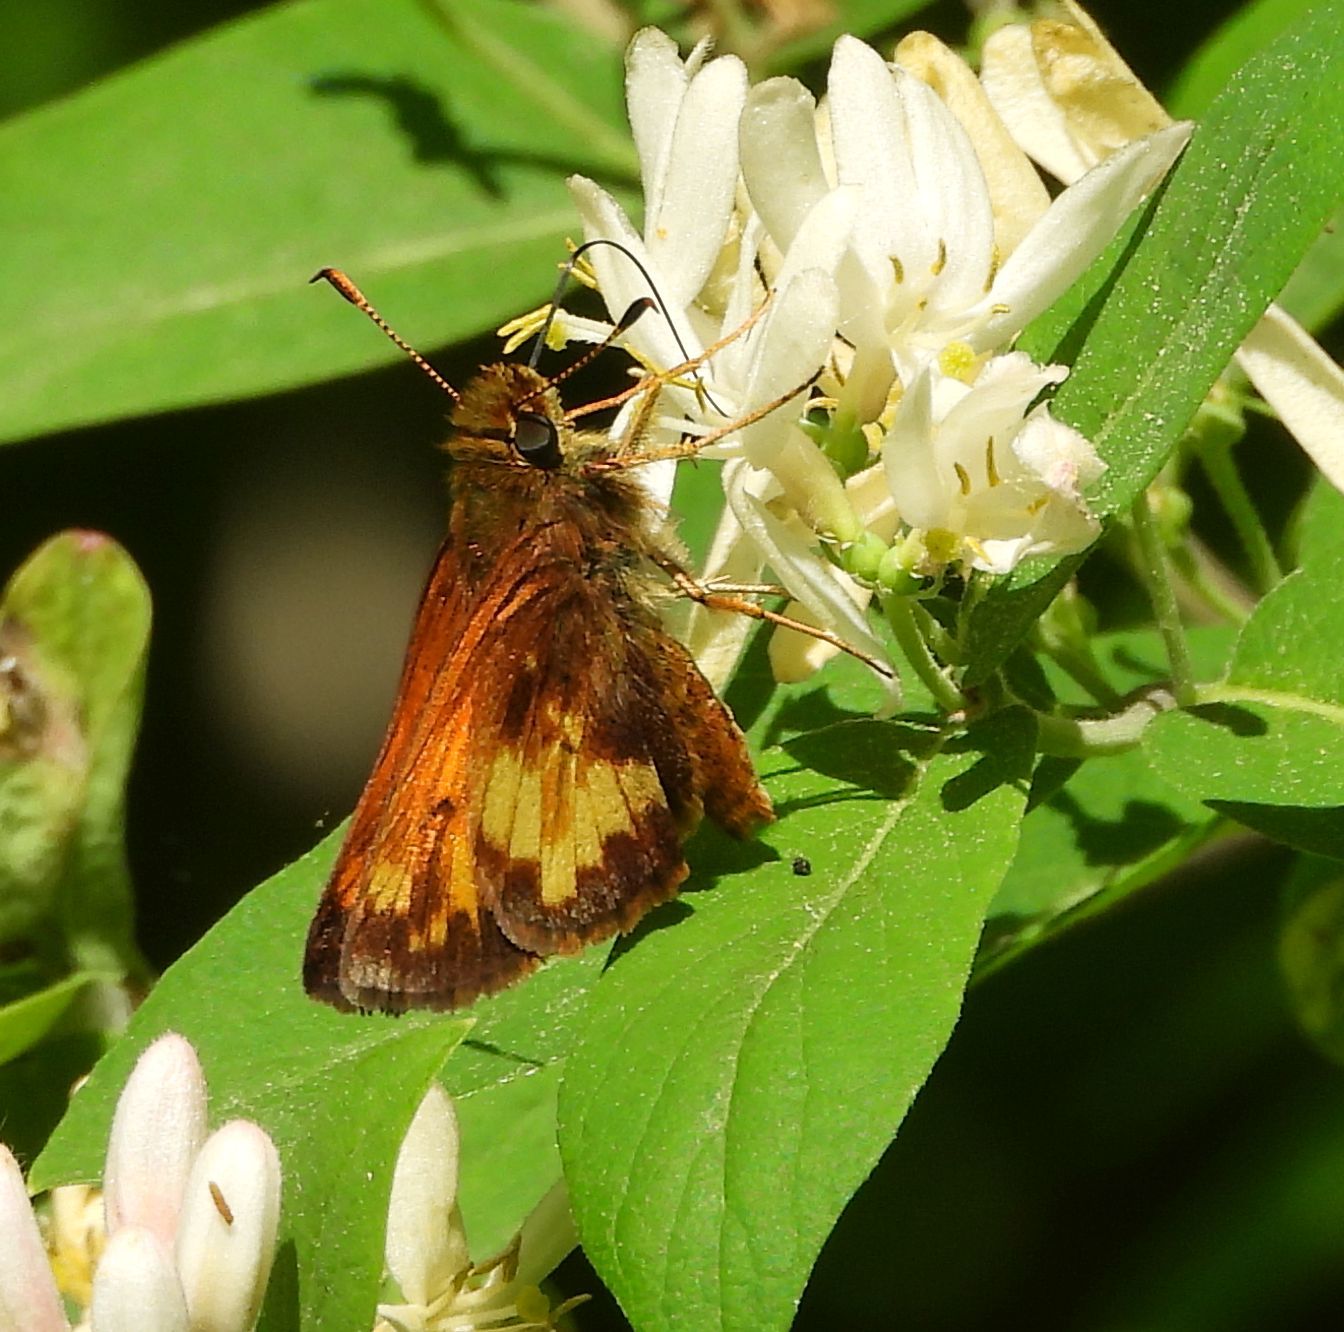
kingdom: Animalia
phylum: Arthropoda
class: Insecta
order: Lepidoptera
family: Hesperiidae
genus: Lon
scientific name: Lon hobomok
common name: Hobomok skipper
